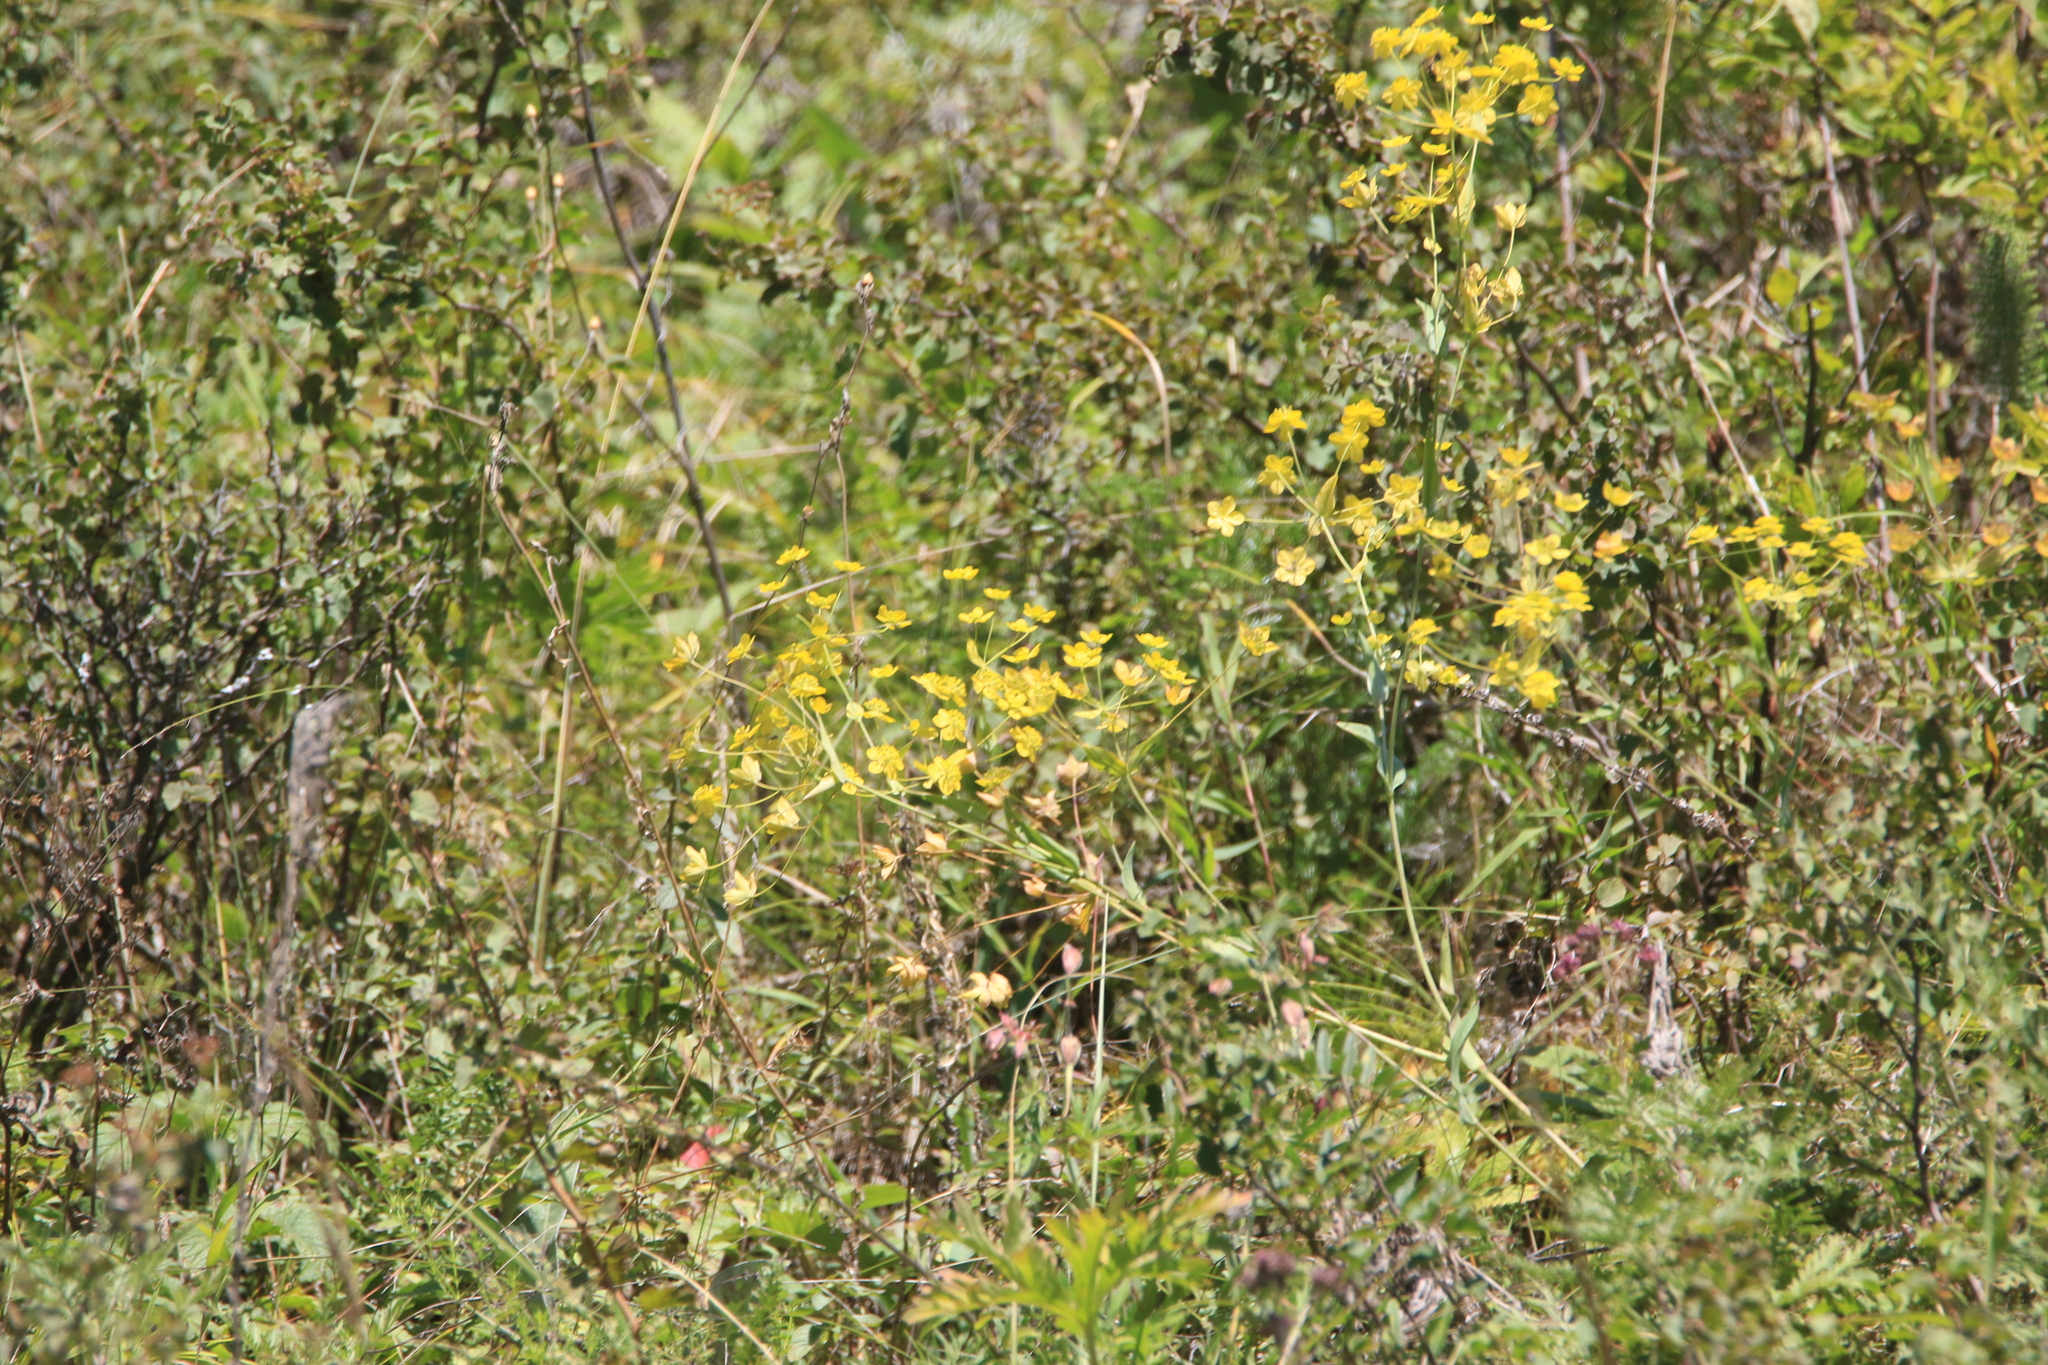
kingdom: Plantae
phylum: Tracheophyta
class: Magnoliopsida
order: Apiales
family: Apiaceae
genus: Bupleurum
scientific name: Bupleurum multinerve
